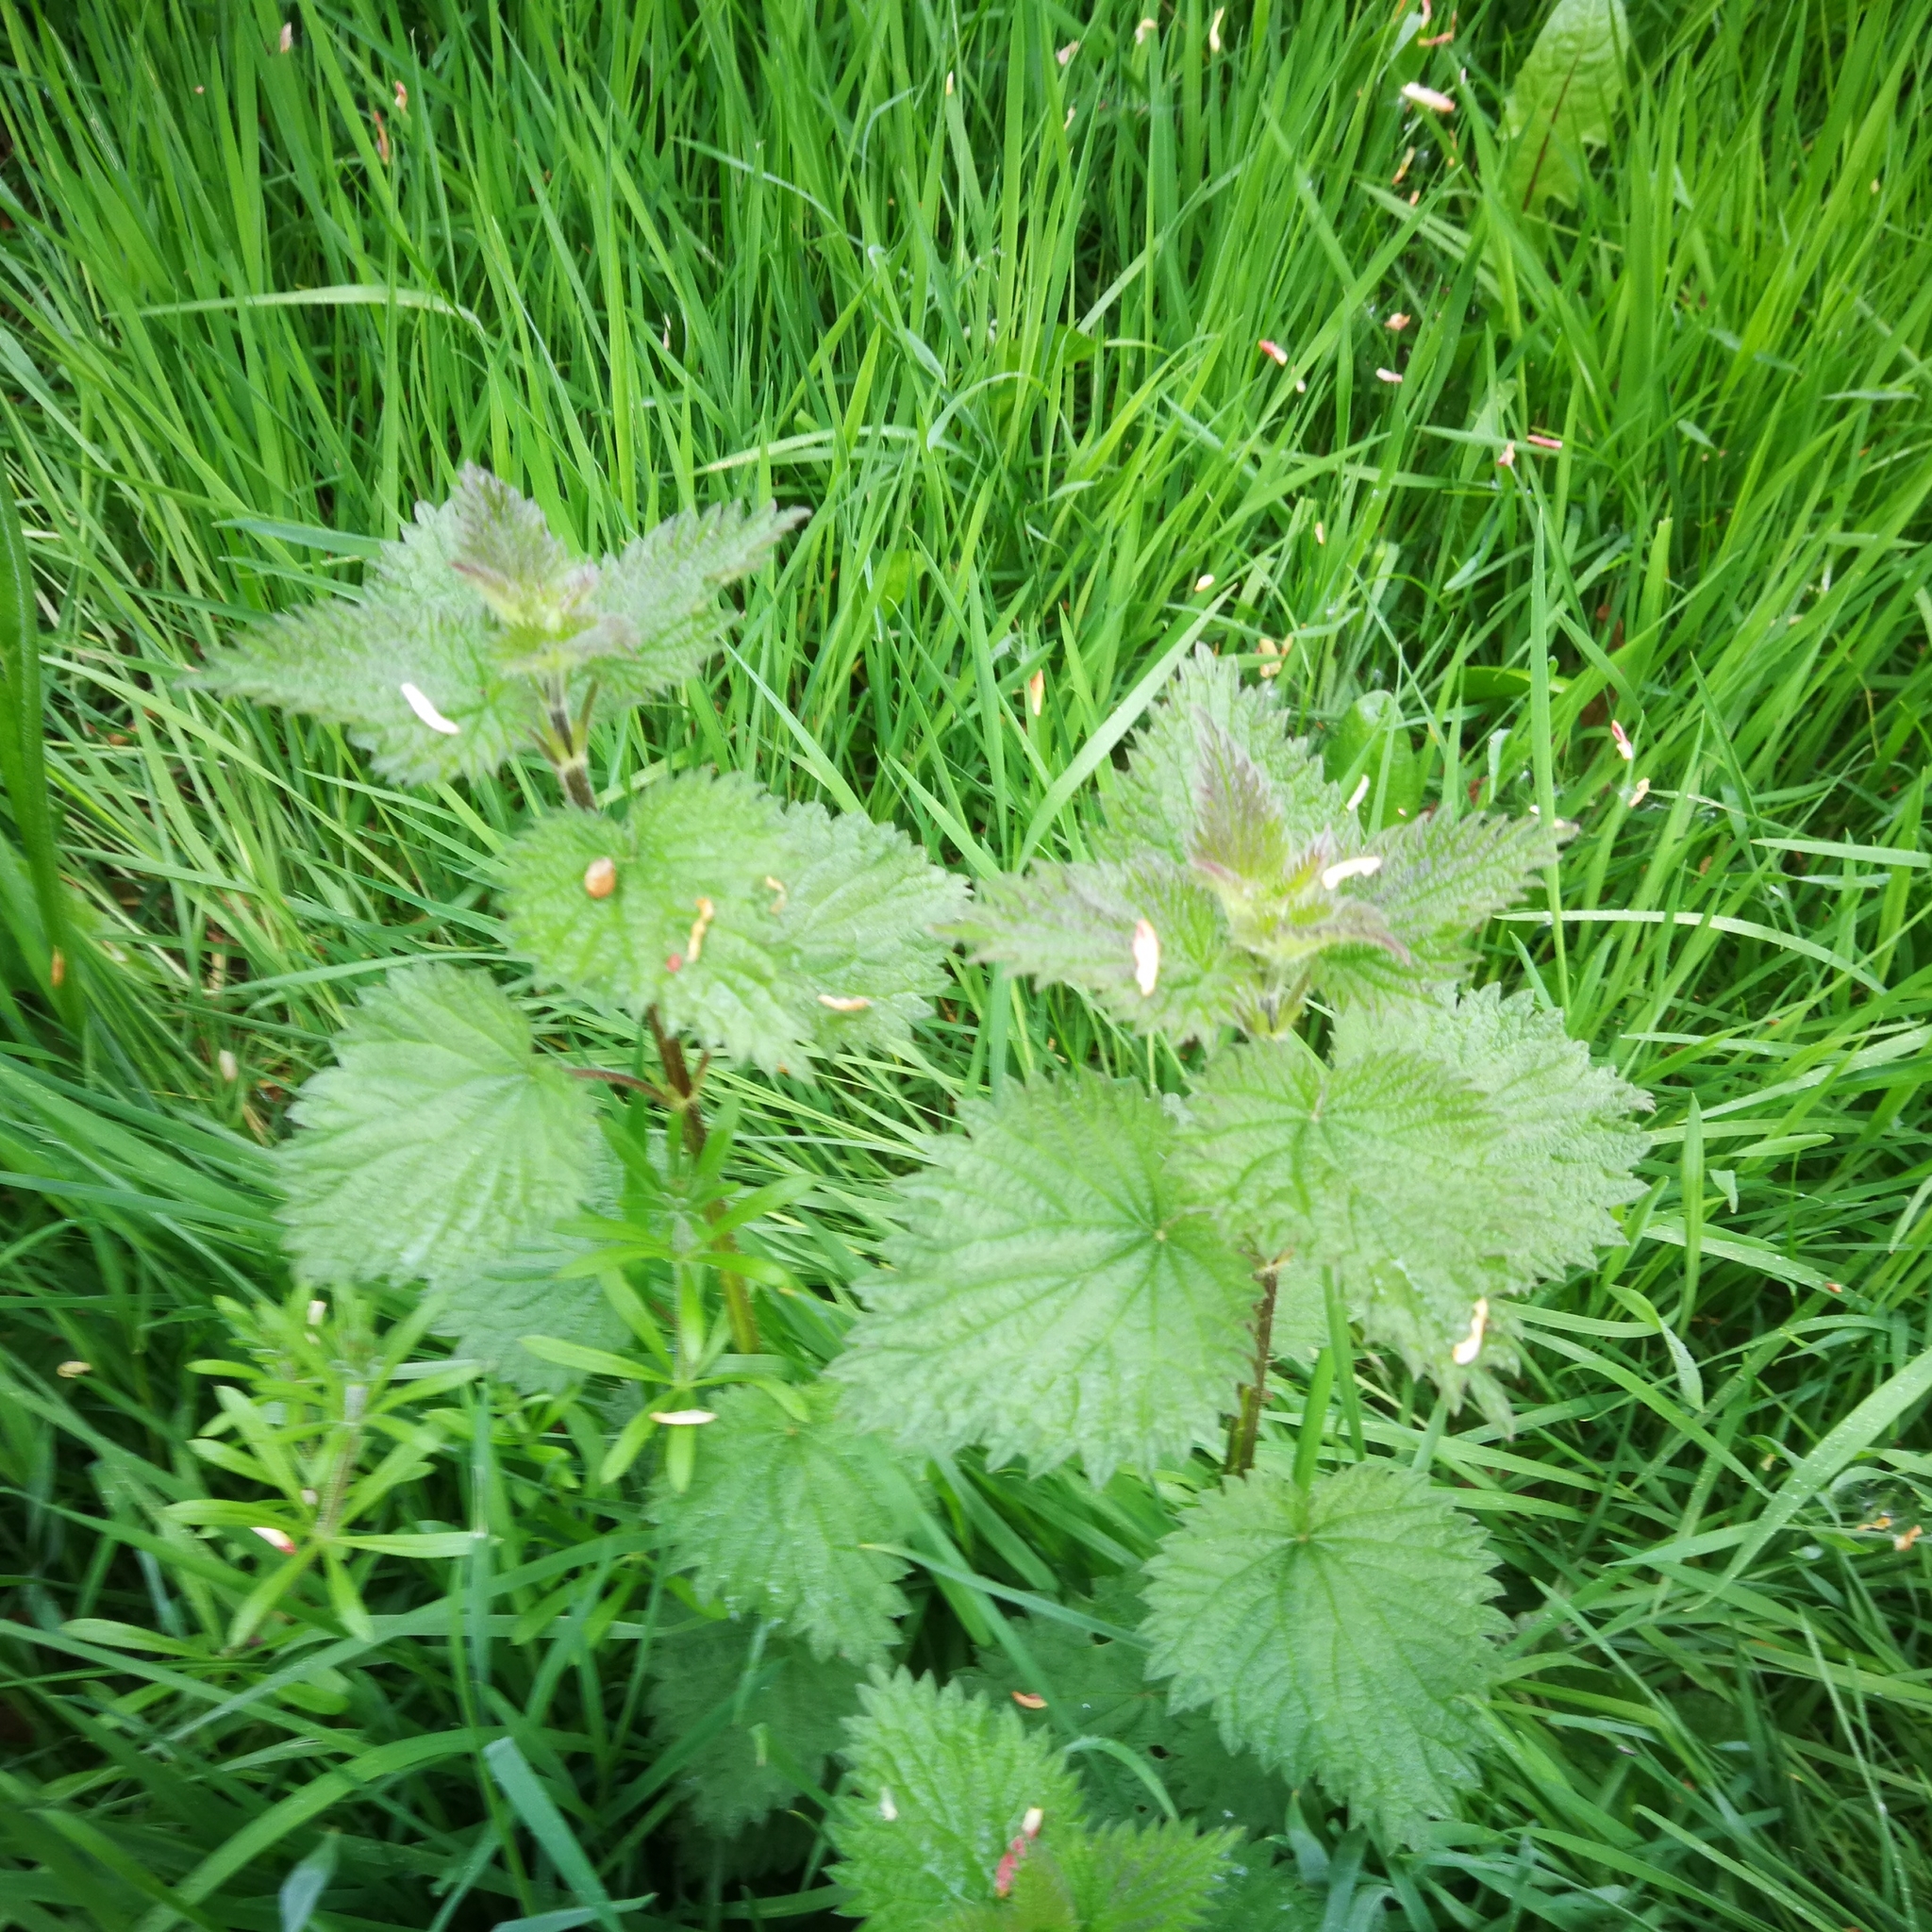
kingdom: Plantae
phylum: Tracheophyta
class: Magnoliopsida
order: Rosales
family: Urticaceae
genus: Urtica
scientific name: Urtica dioica
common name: Common nettle
